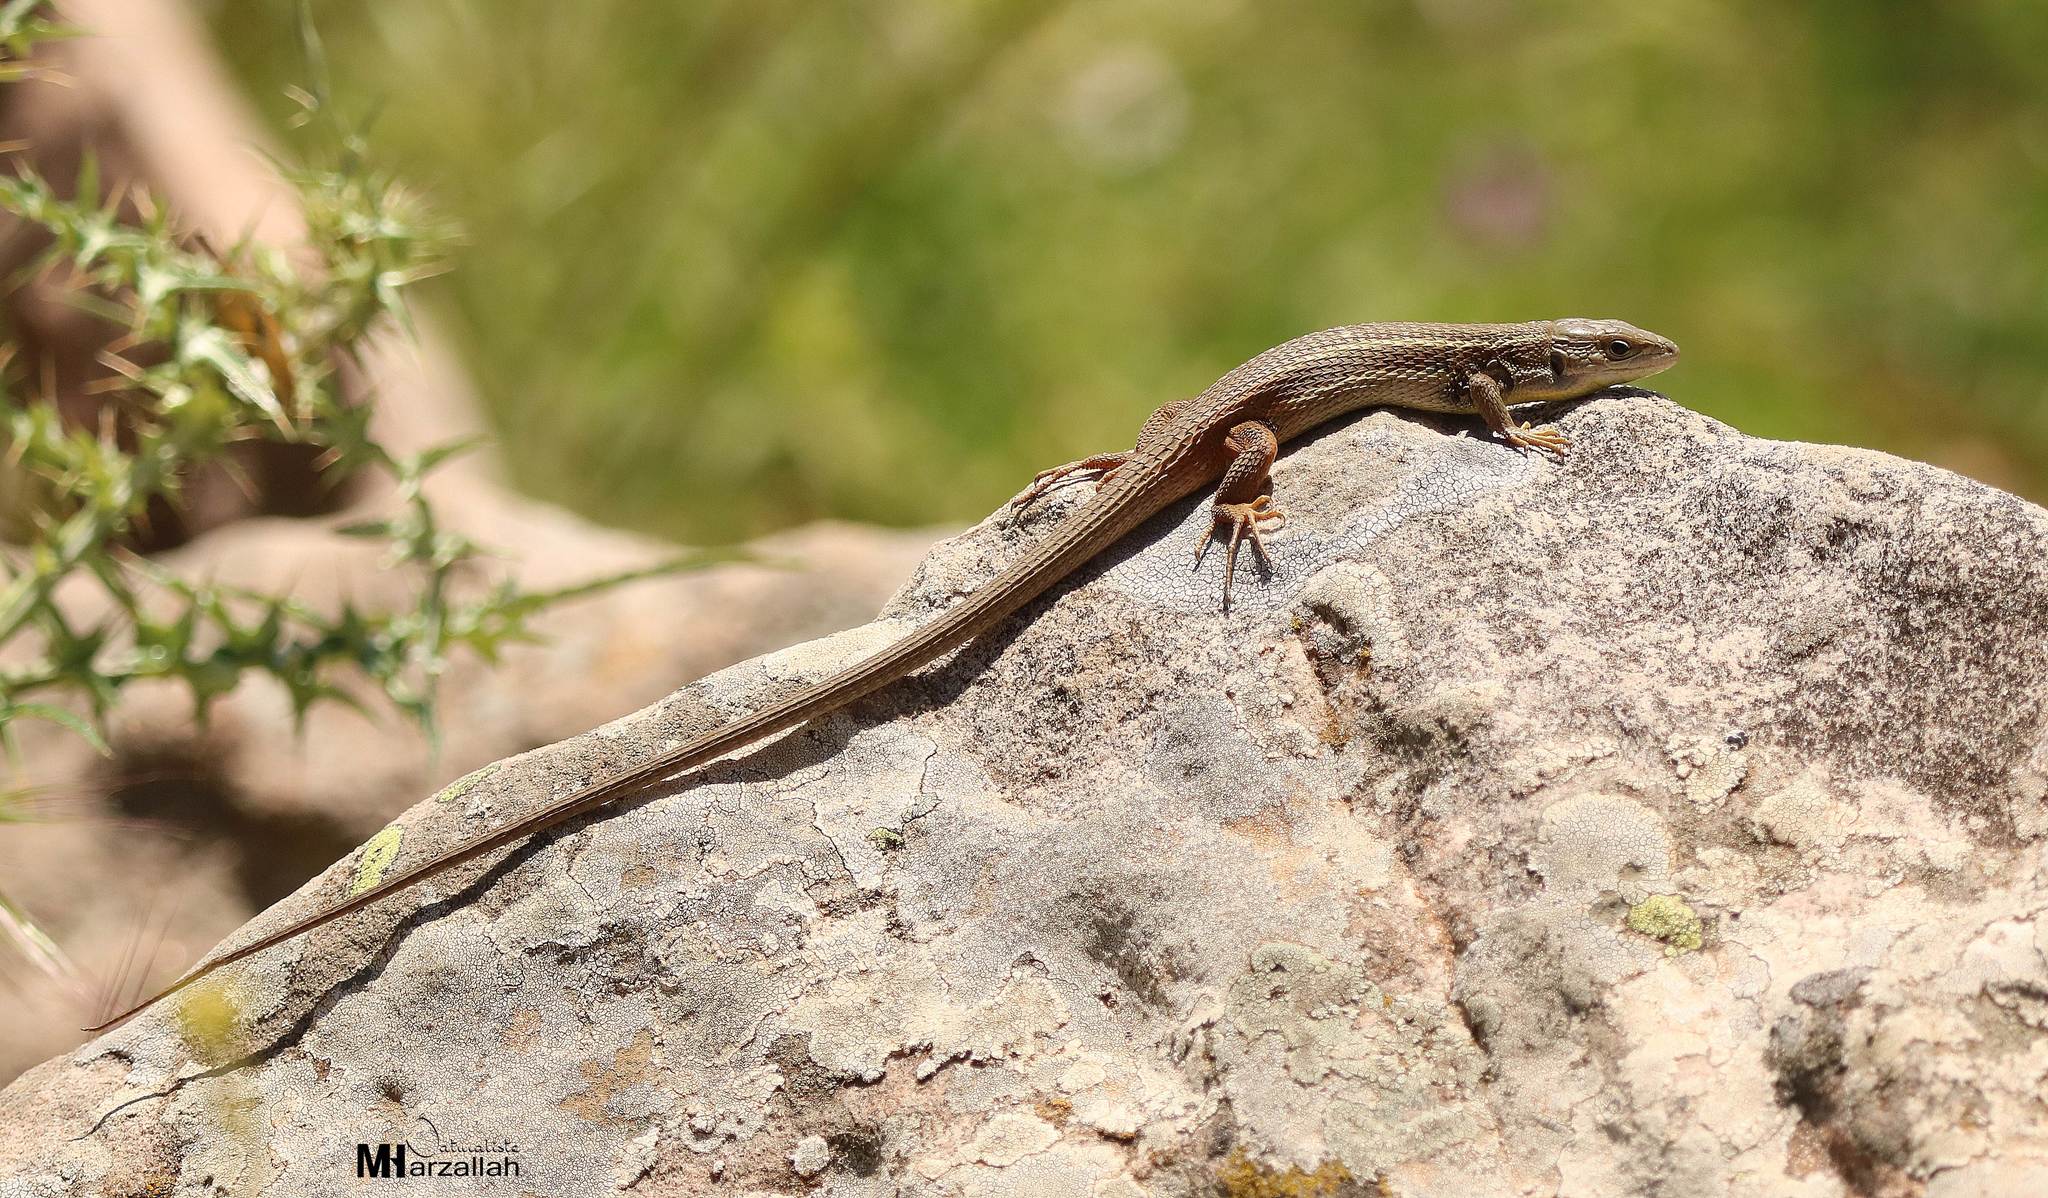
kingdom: Animalia
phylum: Chordata
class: Squamata
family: Lacertidae
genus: Psammodromus
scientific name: Psammodromus algirus
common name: Algerian psammodromus
